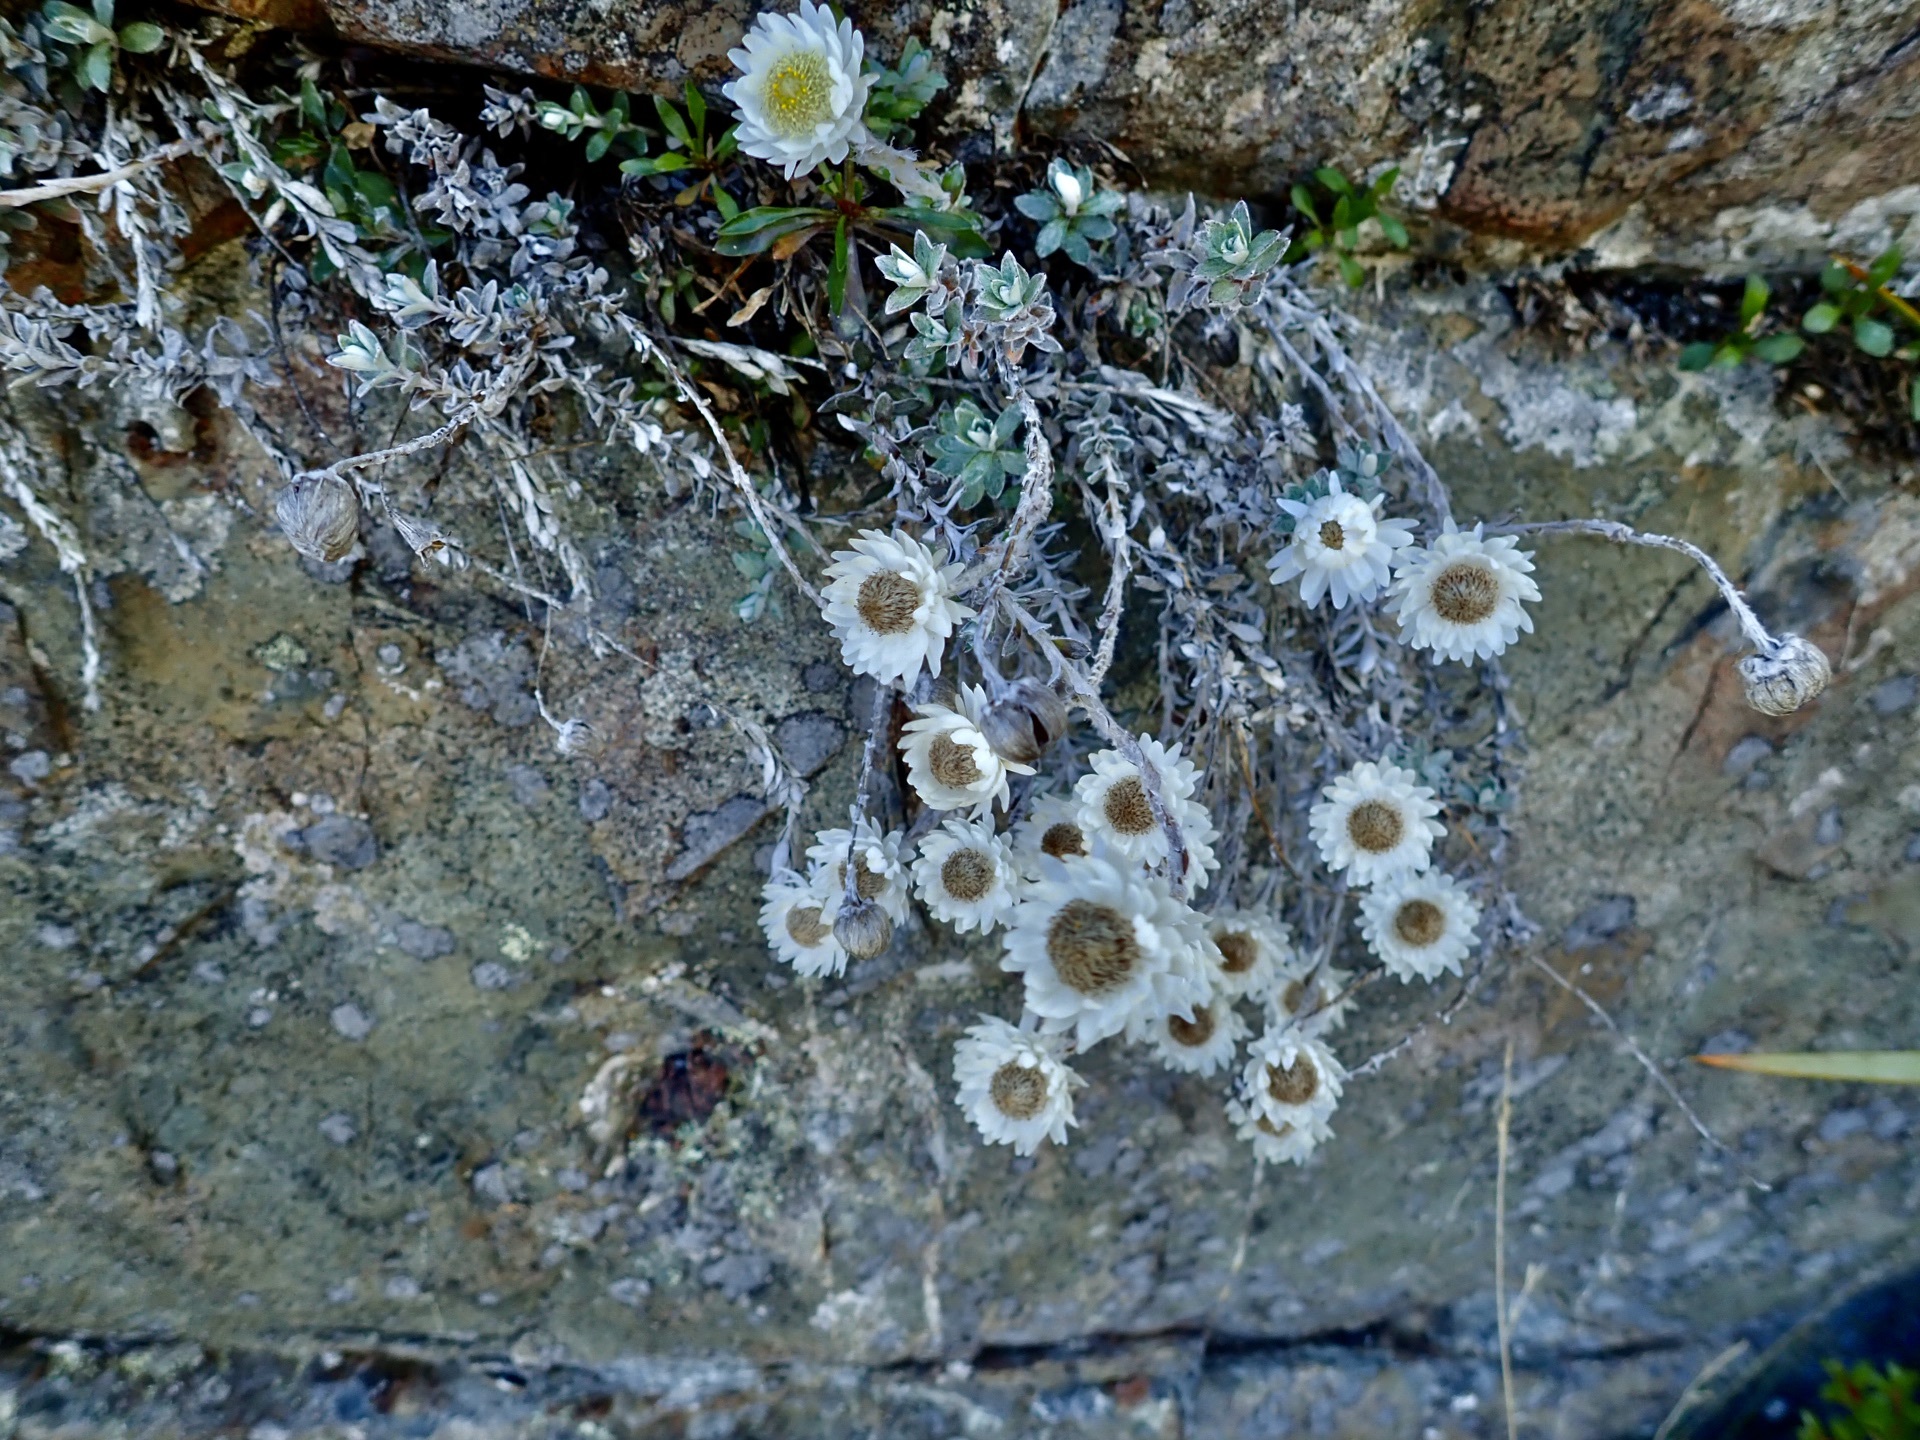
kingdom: Plantae
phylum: Tracheophyta
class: Magnoliopsida
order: Asterales
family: Asteraceae
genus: Anaphalioides
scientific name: Anaphalioides bellidioides
